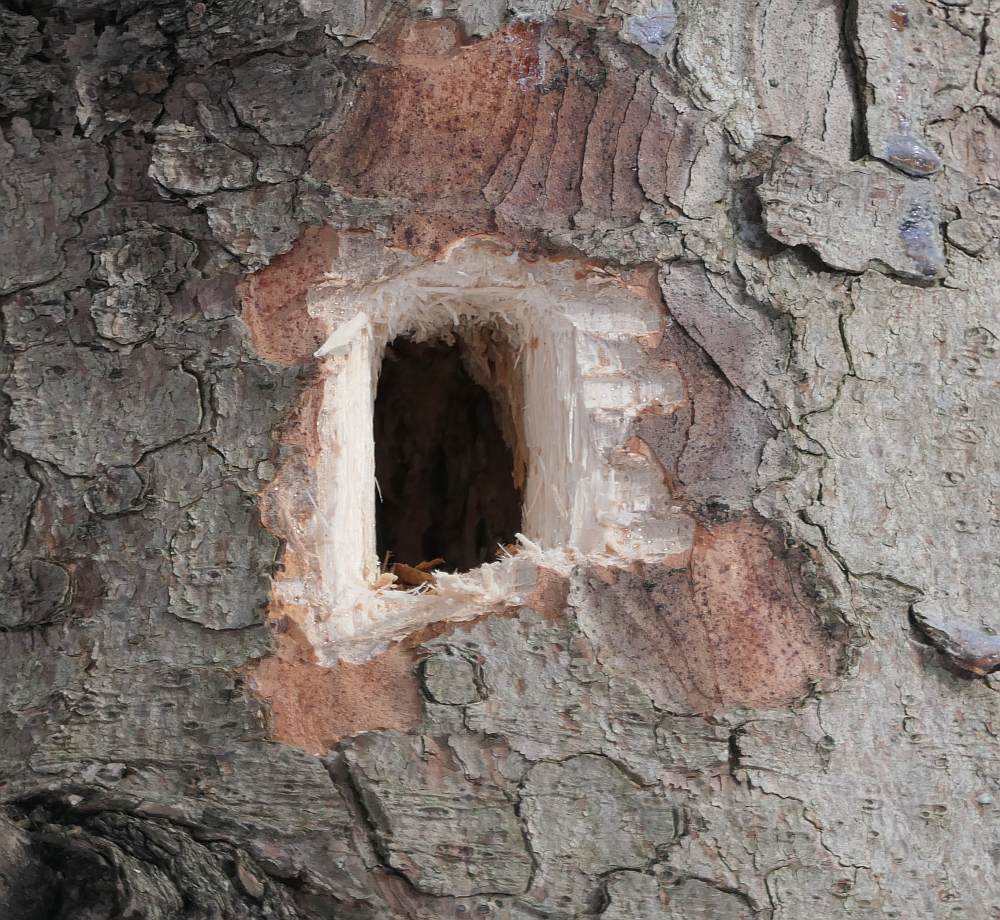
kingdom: Animalia
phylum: Chordata
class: Aves
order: Piciformes
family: Picidae
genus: Dryocopus
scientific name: Dryocopus pileatus
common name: Pileated woodpecker
